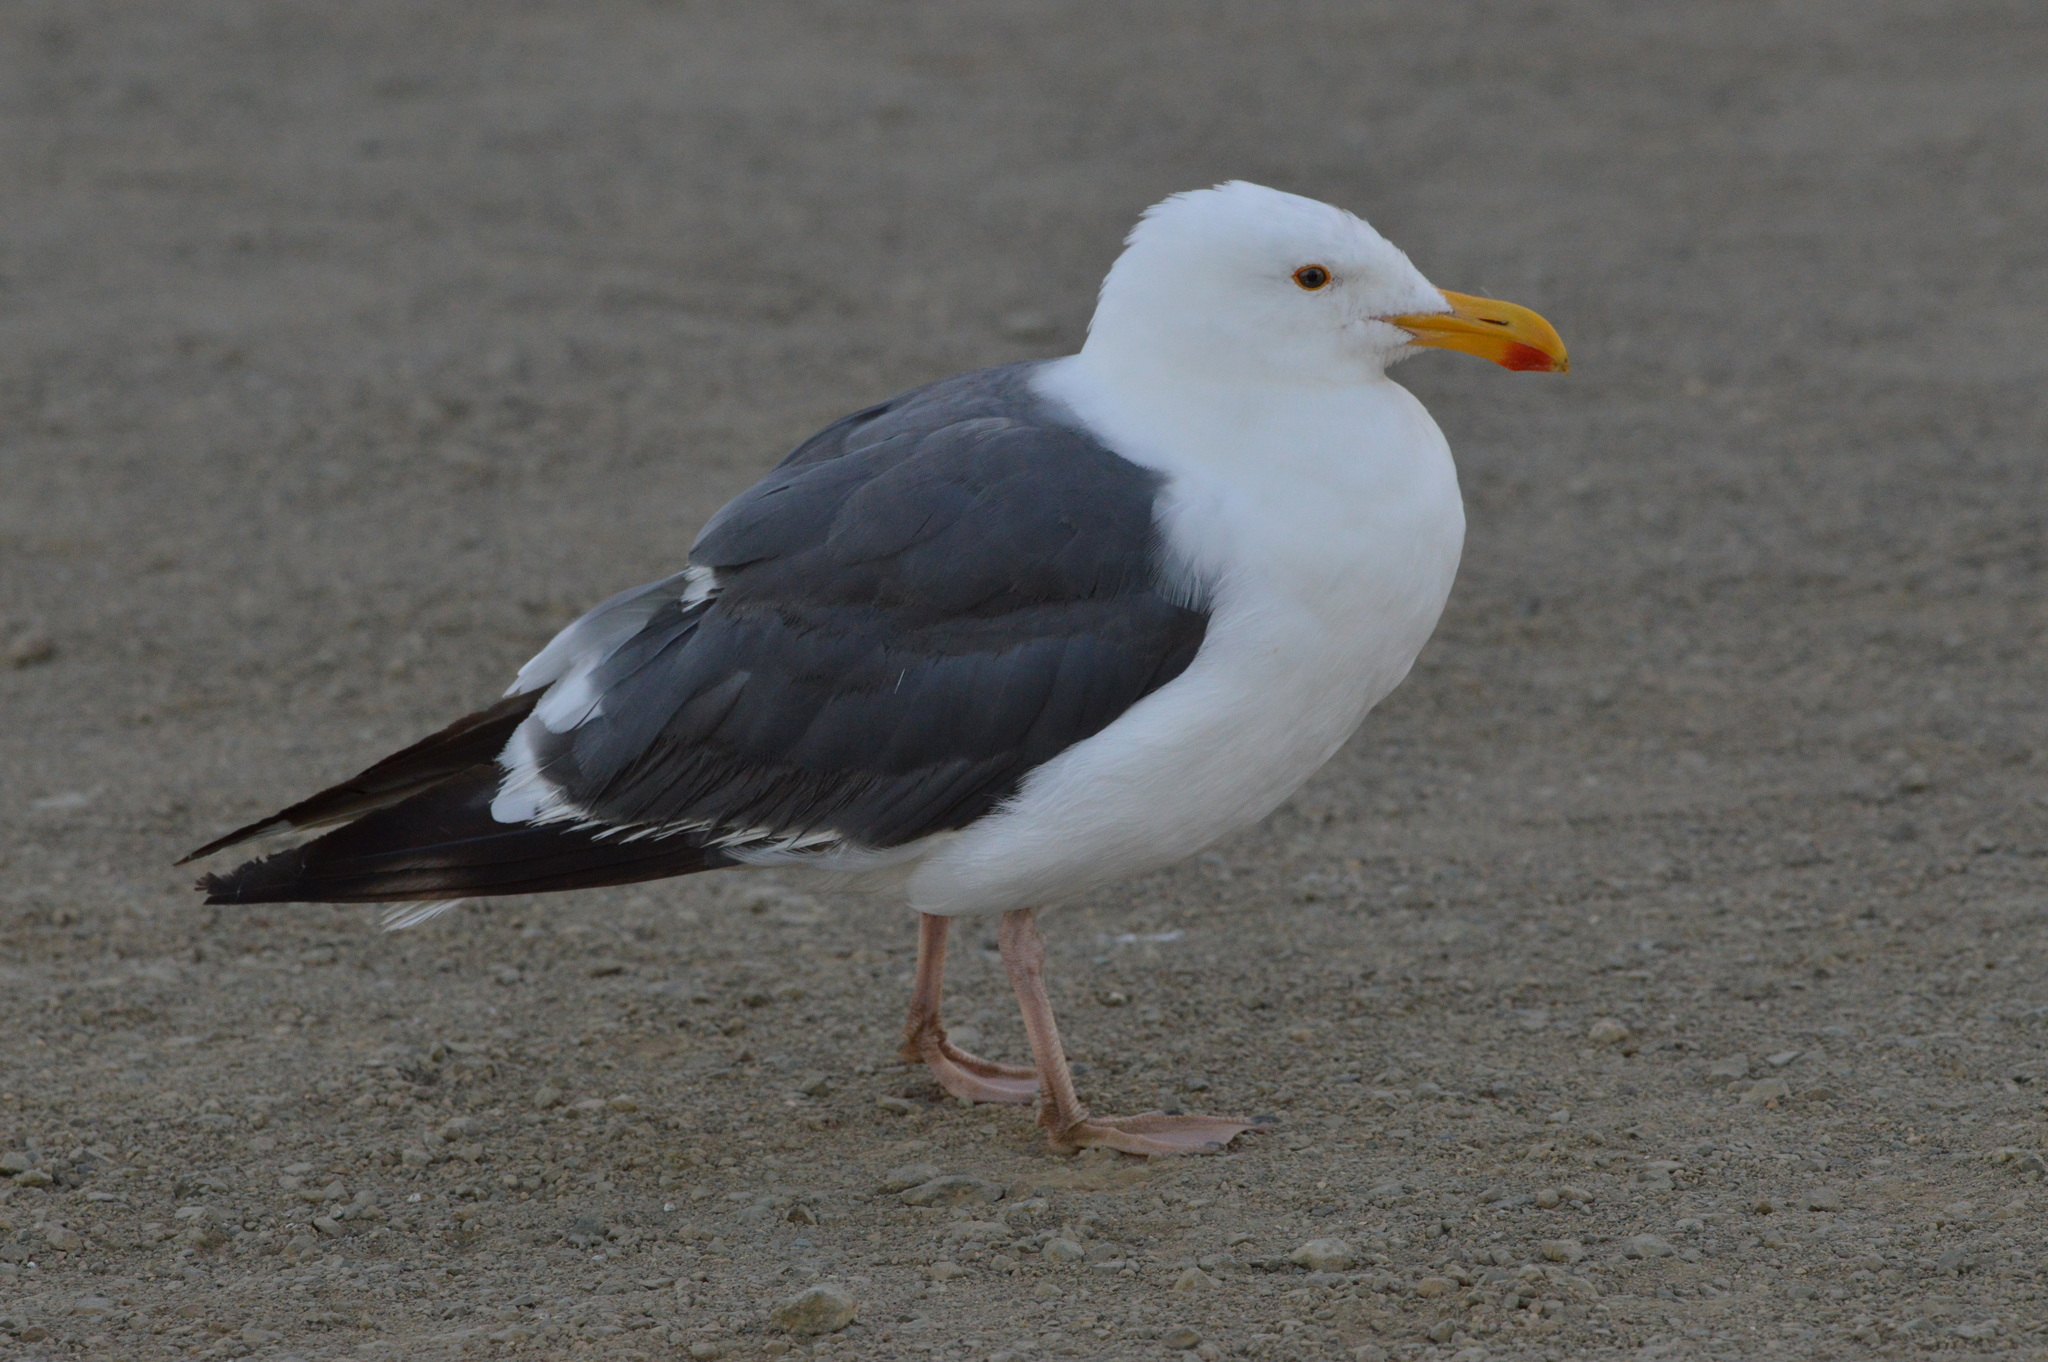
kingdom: Animalia
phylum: Chordata
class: Aves
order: Charadriiformes
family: Laridae
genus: Larus
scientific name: Larus occidentalis
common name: Western gull
